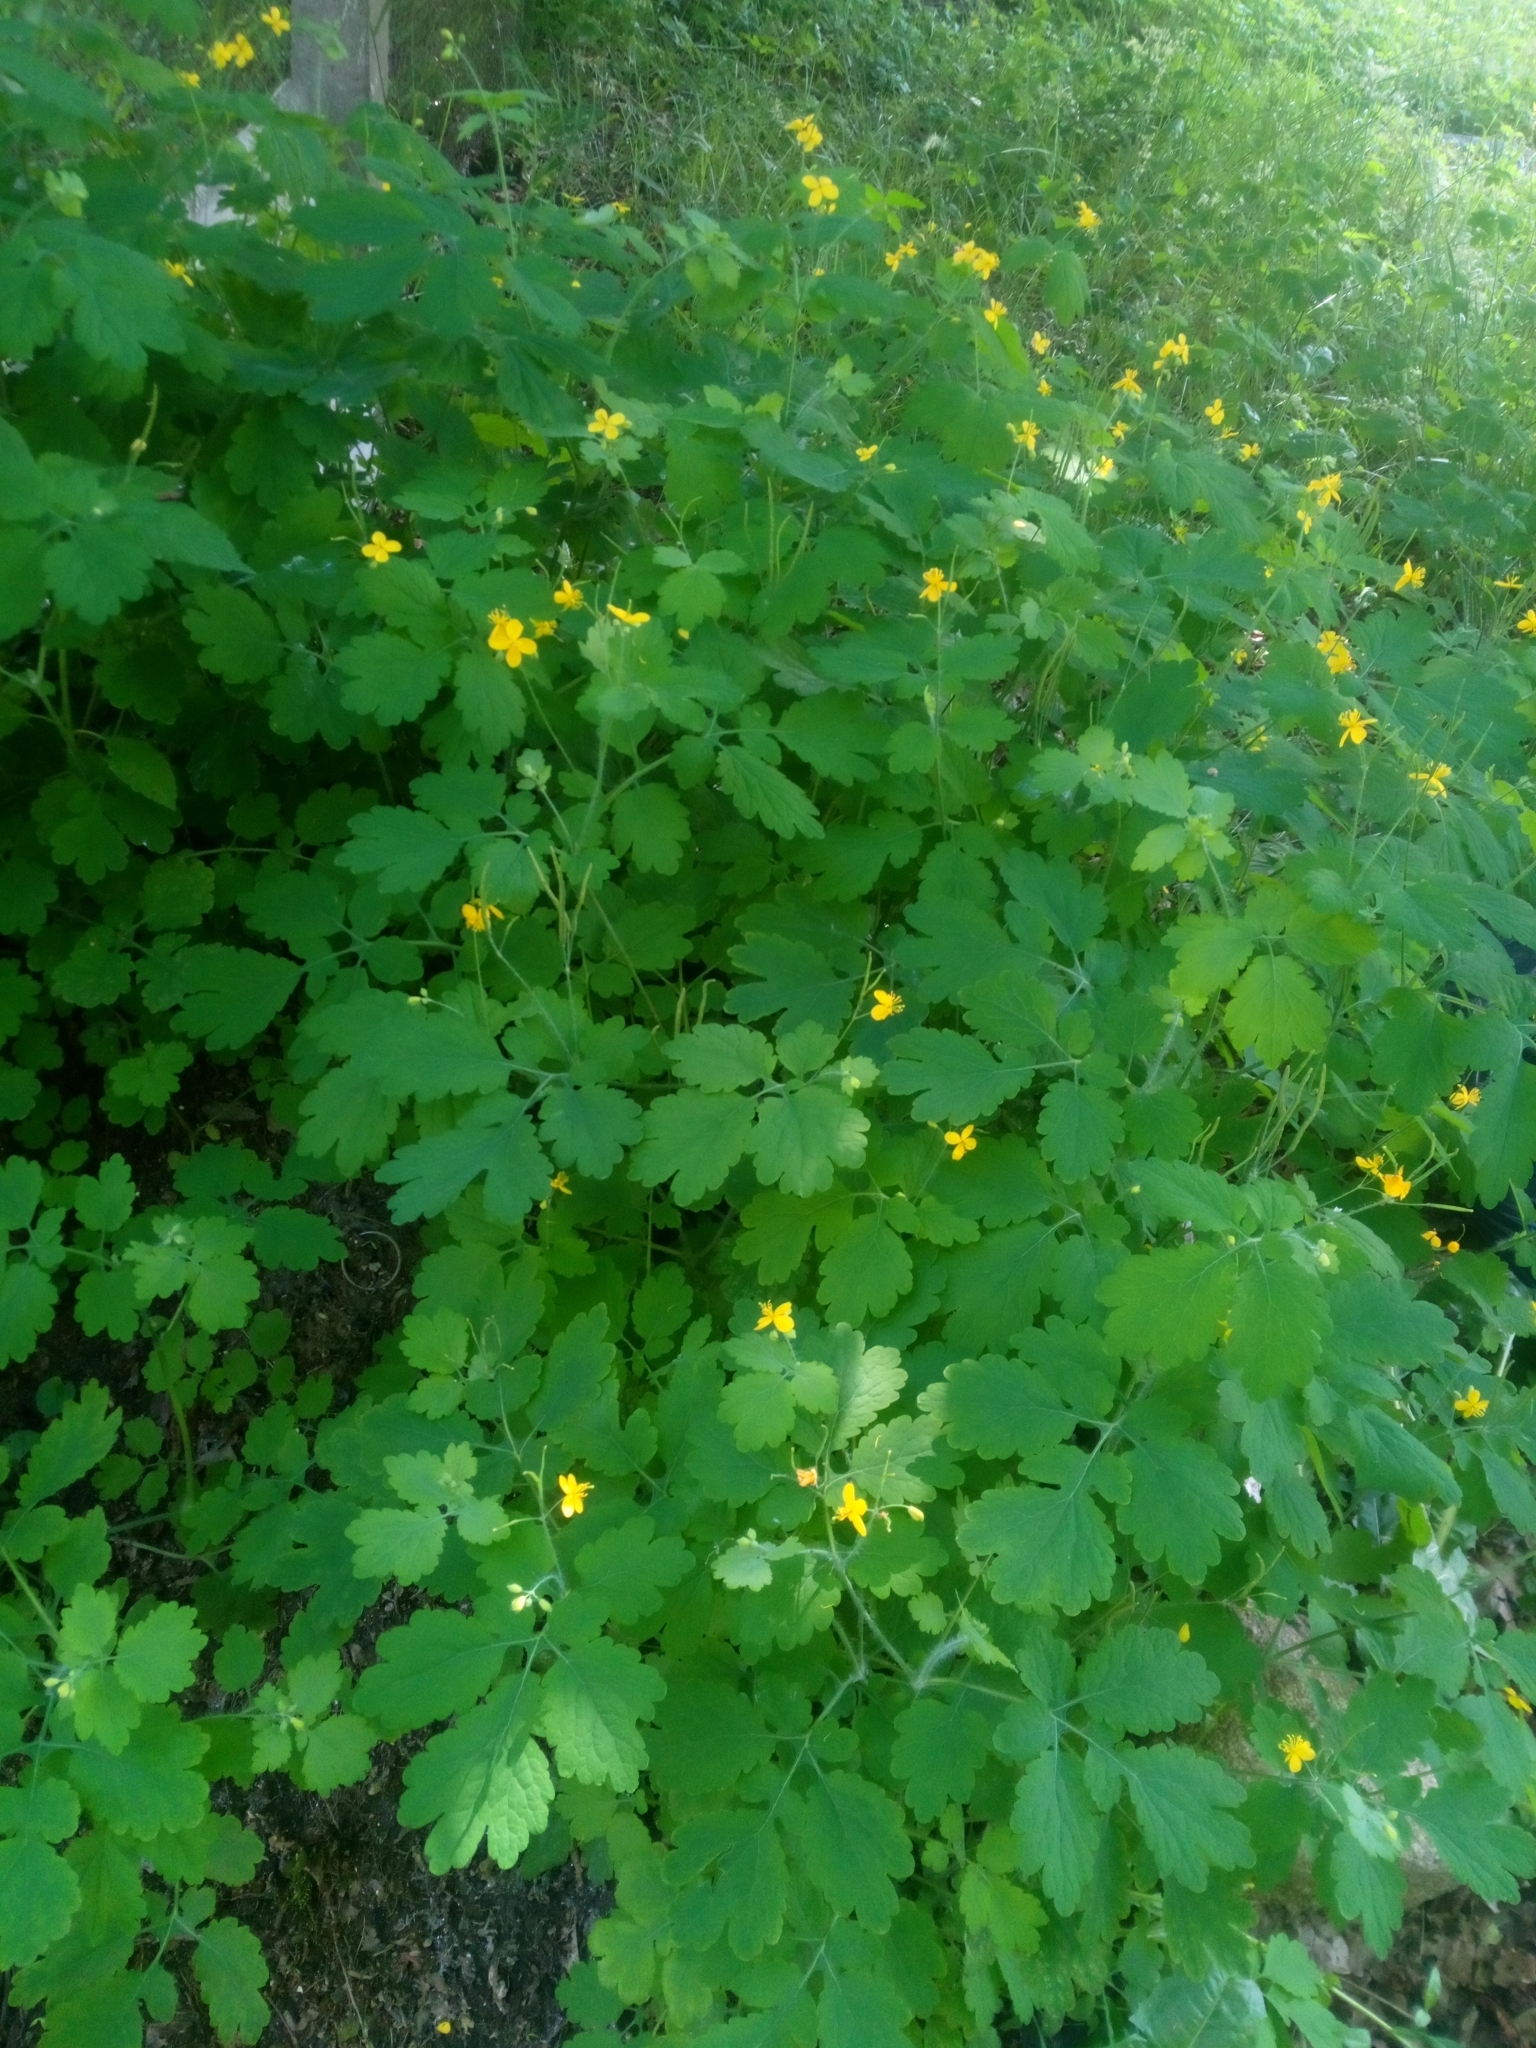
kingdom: Plantae
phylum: Tracheophyta
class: Magnoliopsida
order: Ranunculales
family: Papaveraceae
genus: Chelidonium
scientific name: Chelidonium majus
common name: Greater celandine
